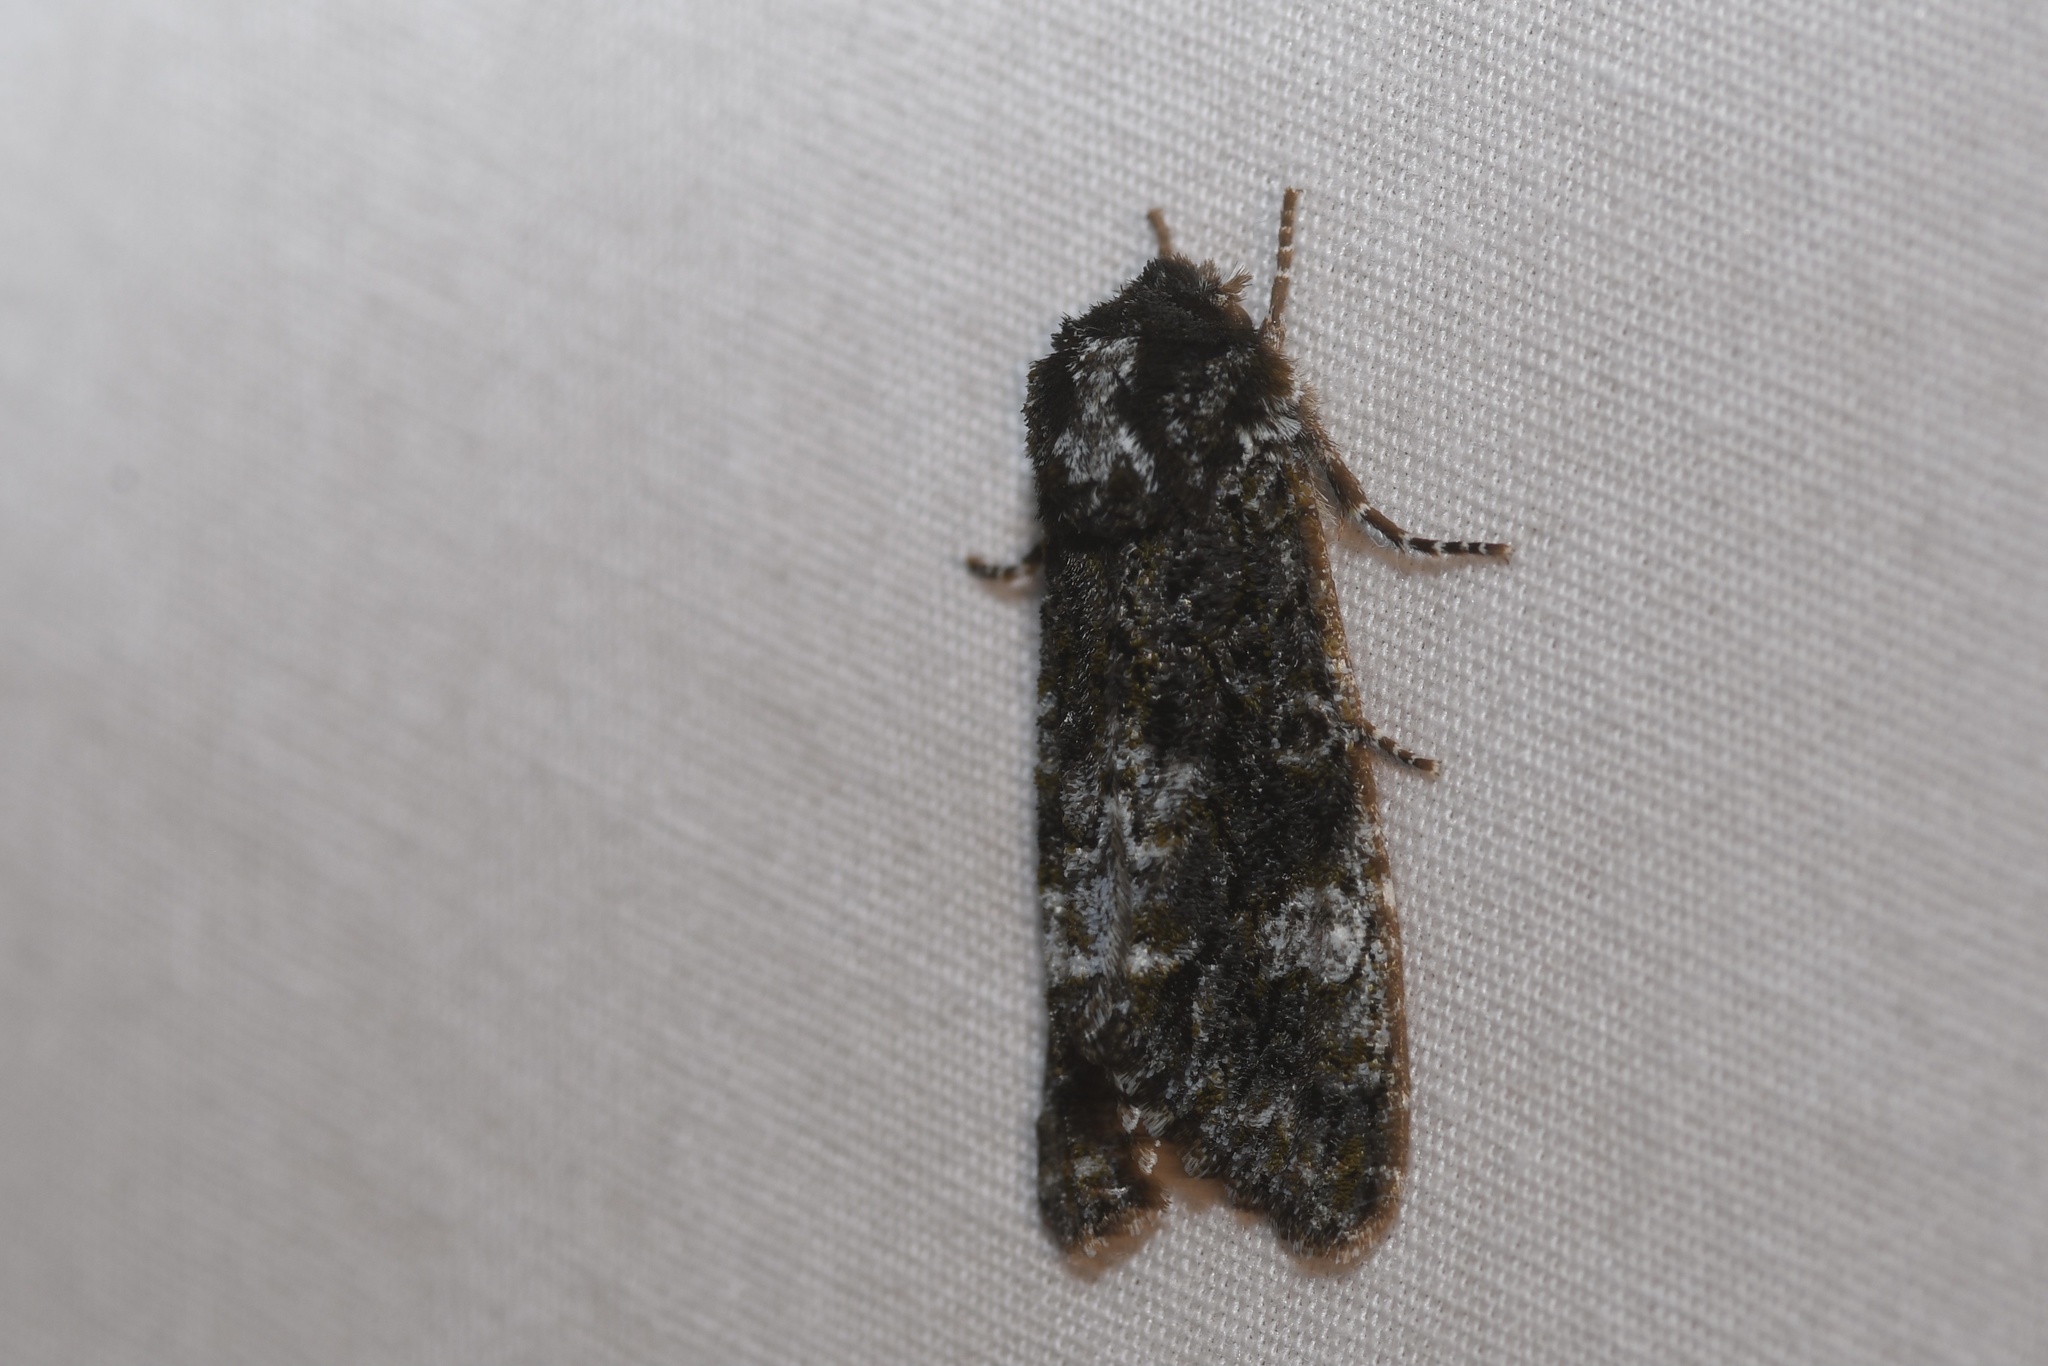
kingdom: Animalia
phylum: Arthropoda
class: Insecta
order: Lepidoptera
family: Noctuidae
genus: Psaphida
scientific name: Psaphida grotei
